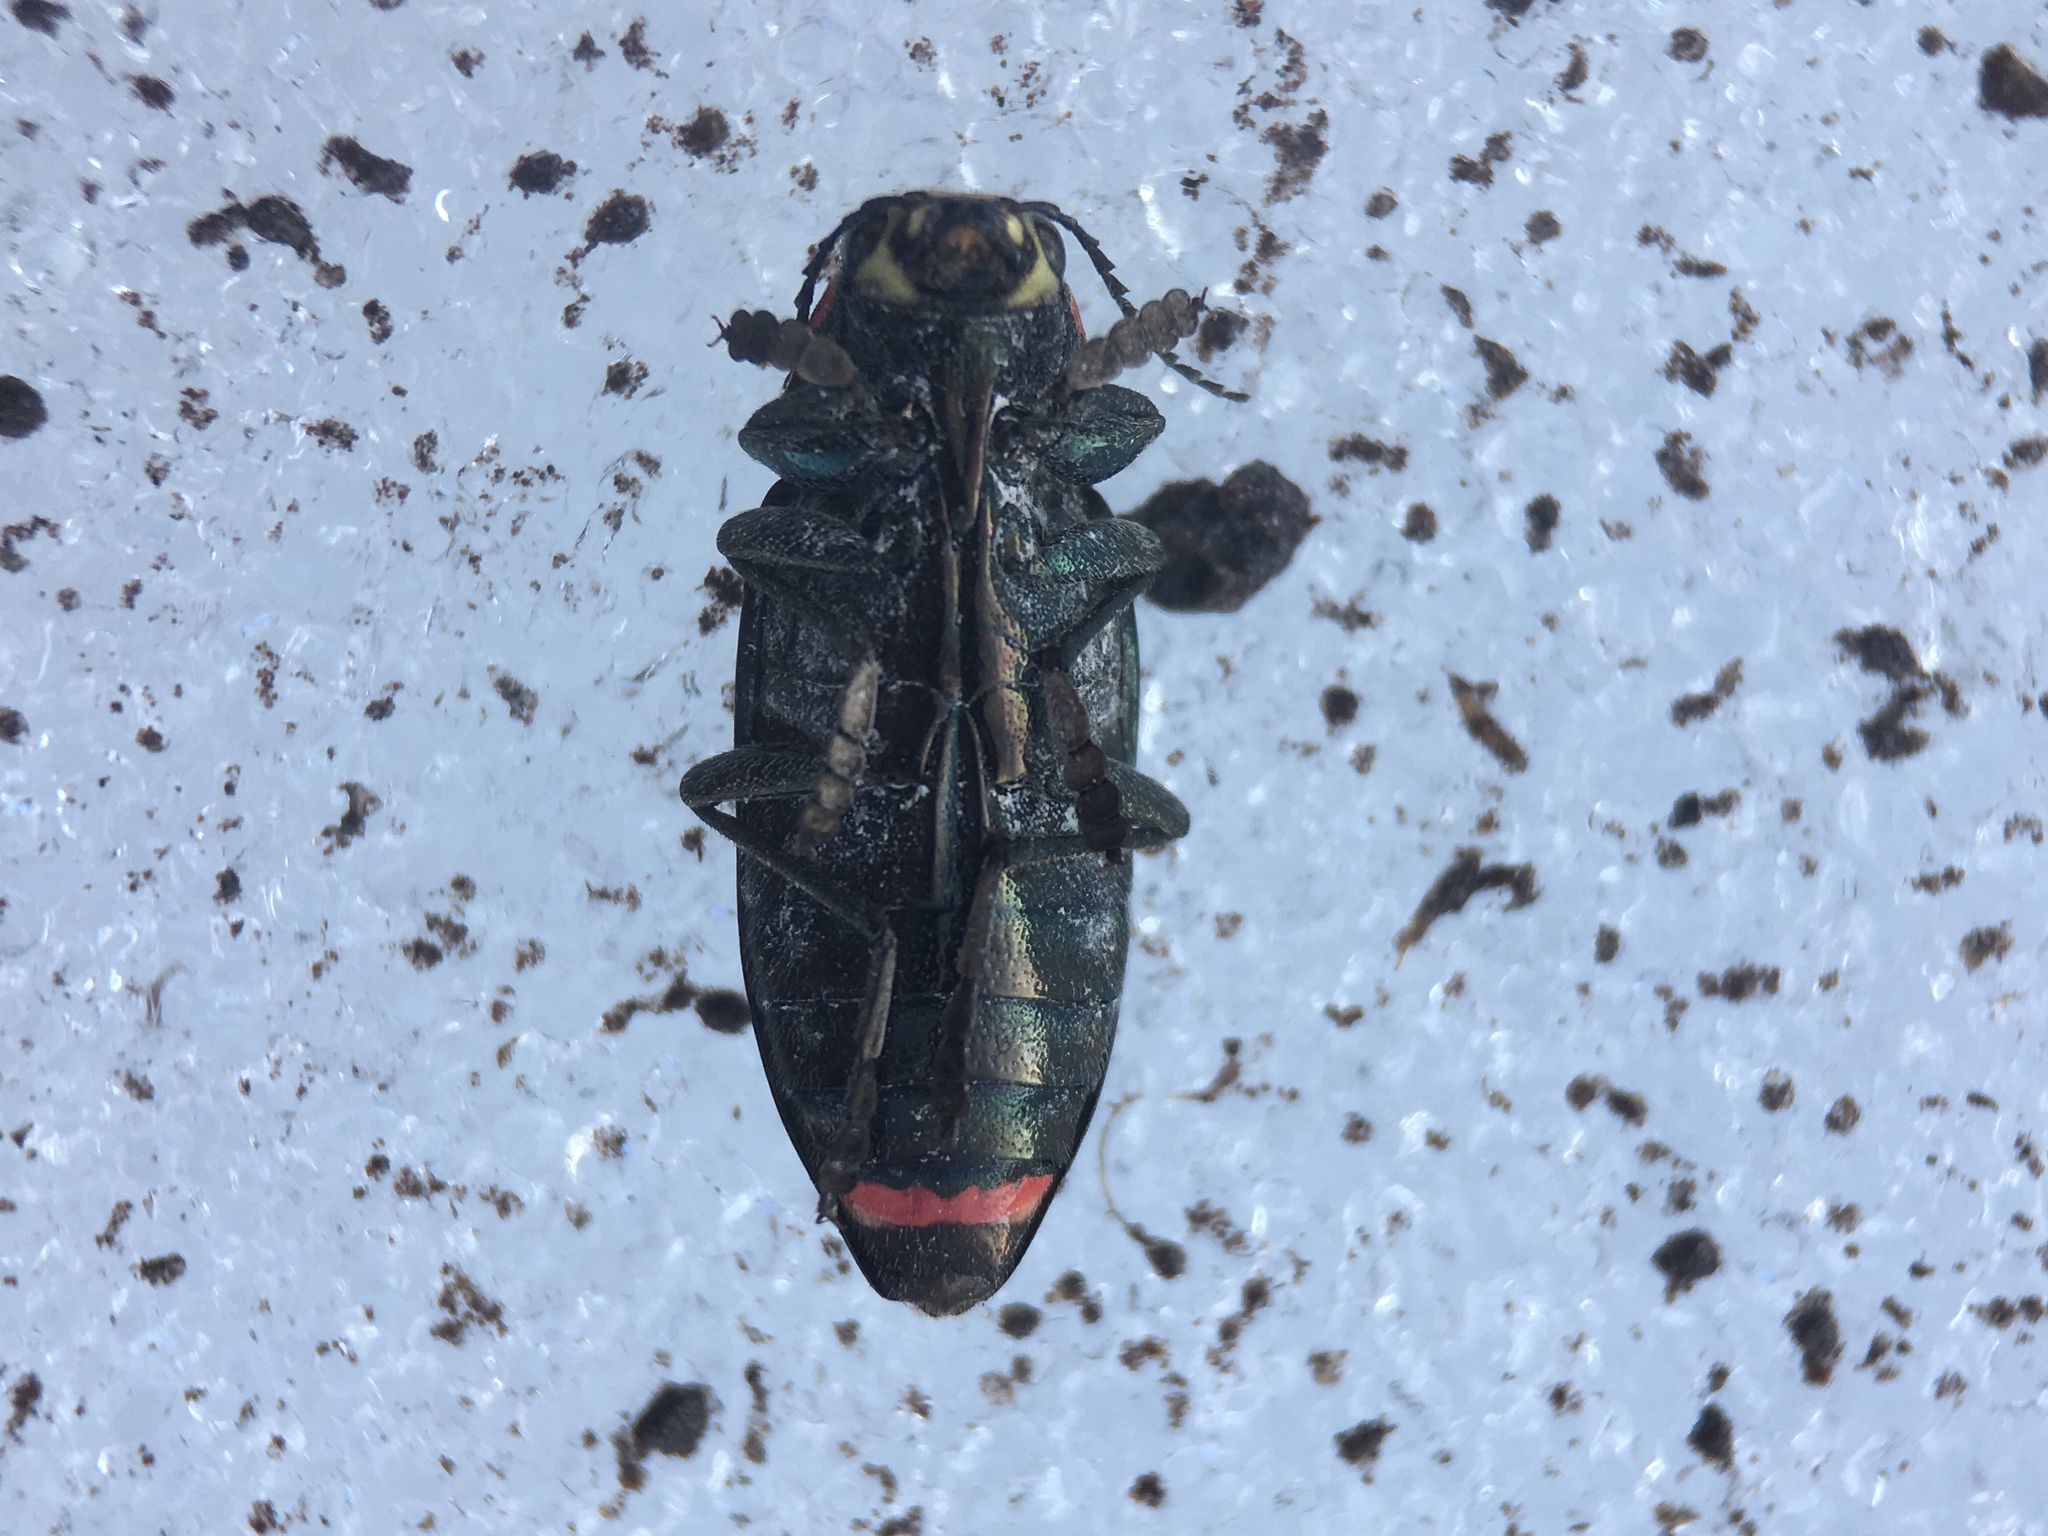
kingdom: Animalia
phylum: Arthropoda
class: Insecta
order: Coleoptera
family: Buprestidae
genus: Buprestis
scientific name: Buprestis lyrata
